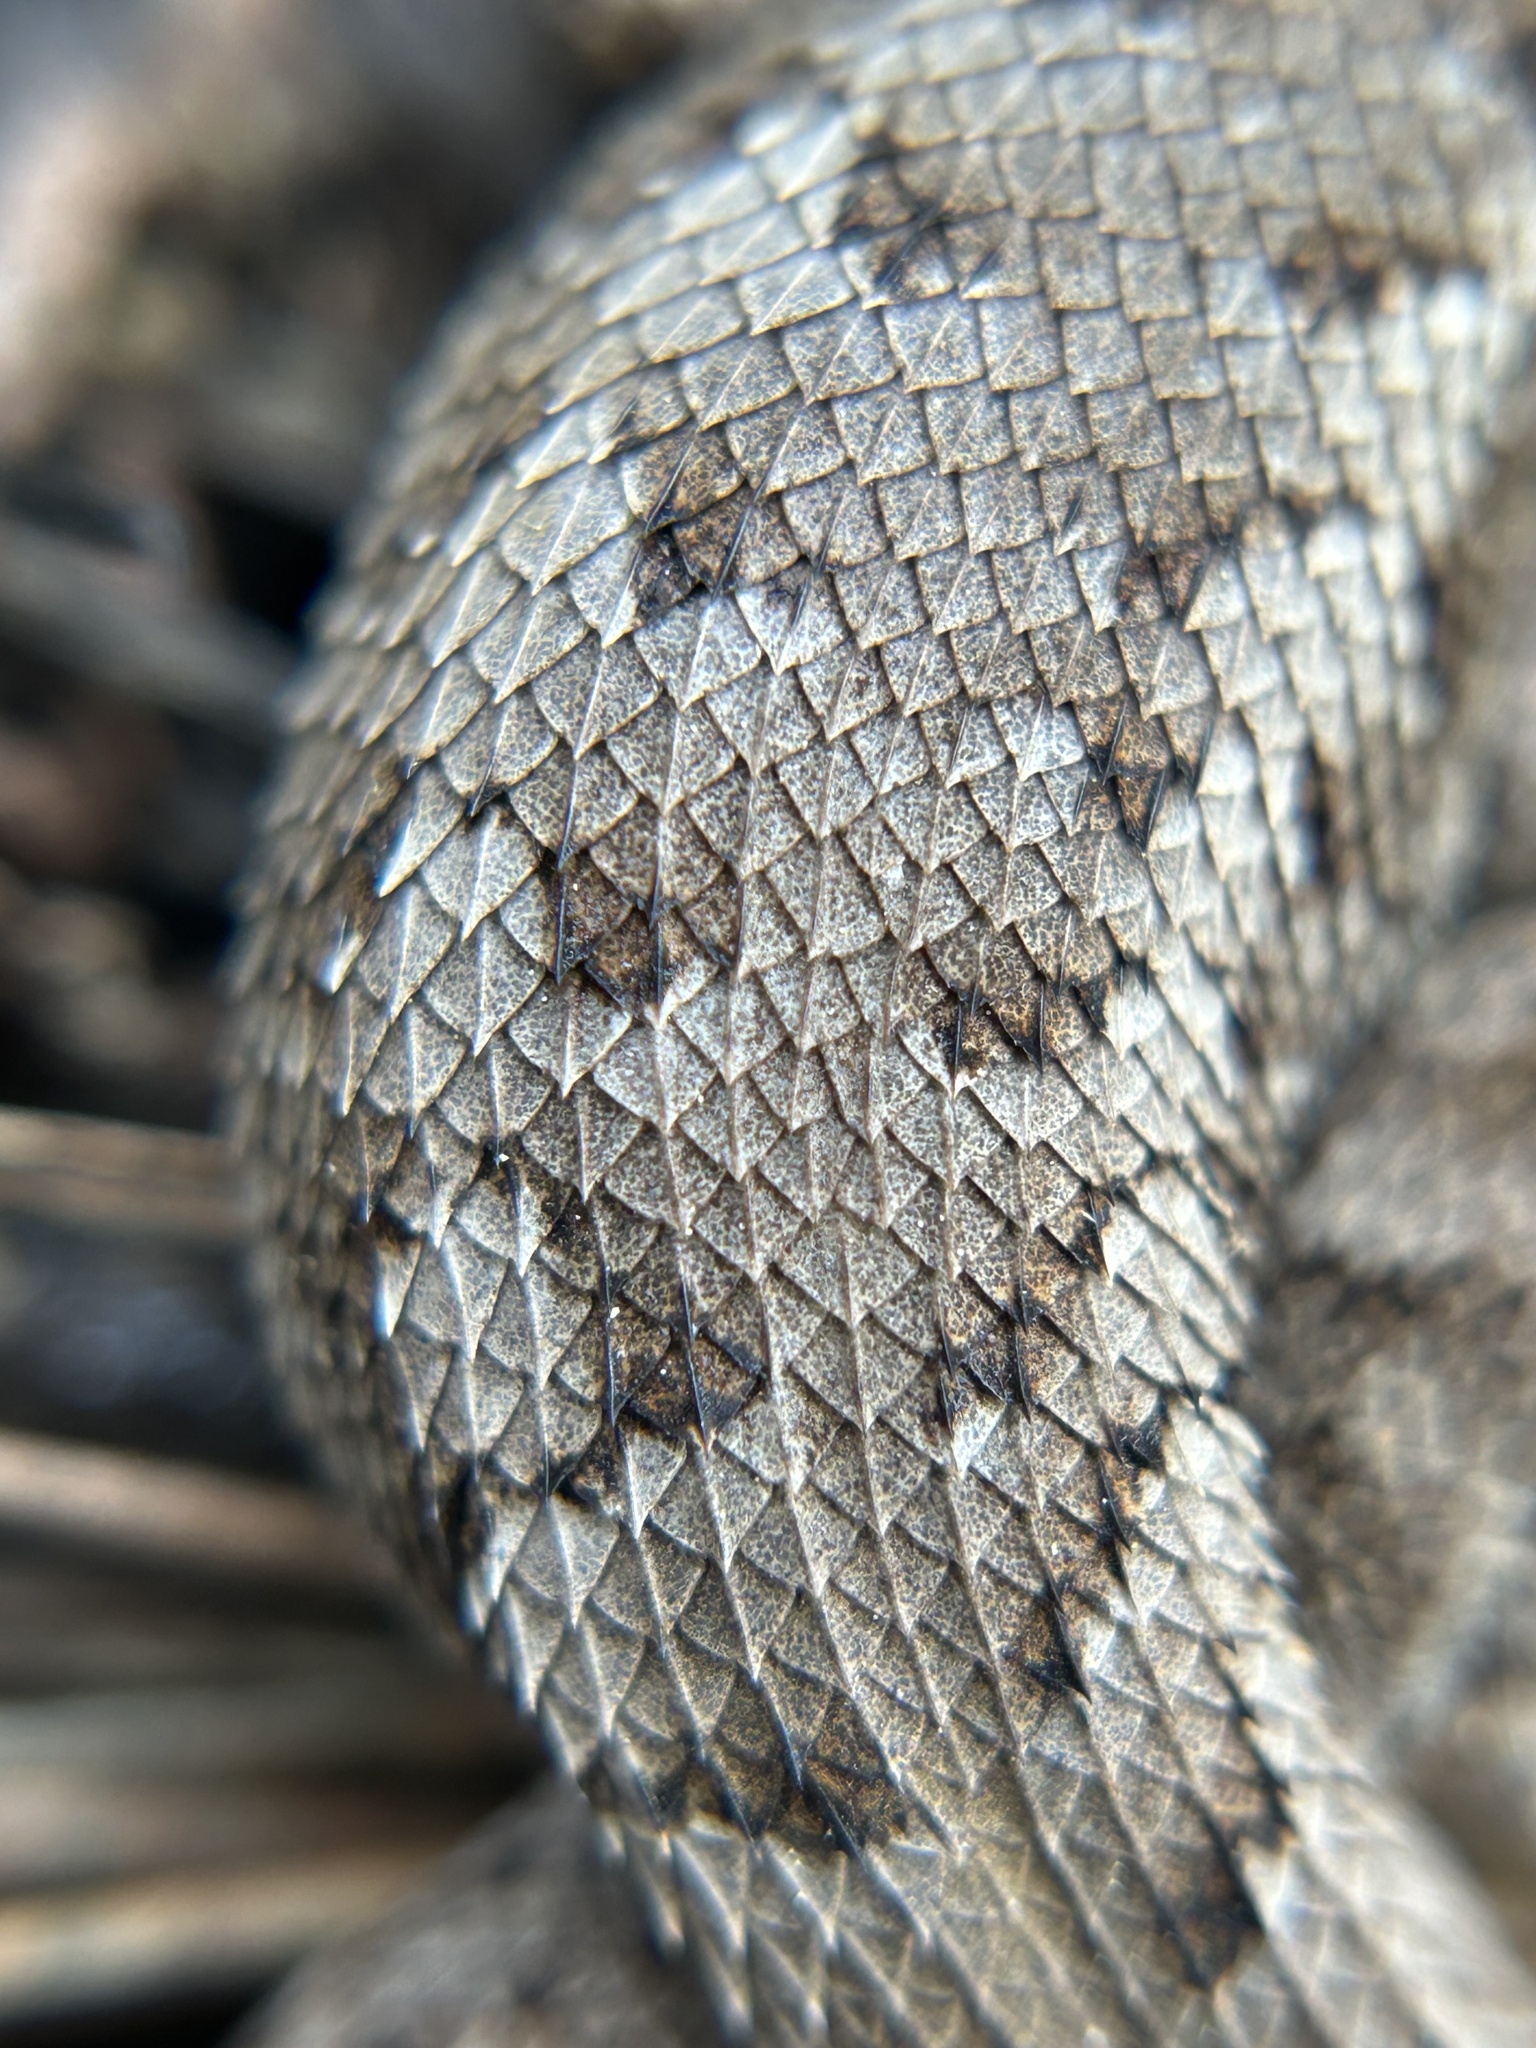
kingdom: Animalia
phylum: Chordata
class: Squamata
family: Phrynosomatidae
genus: Sceloporus
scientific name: Sceloporus occidentalis
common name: Western fence lizard
